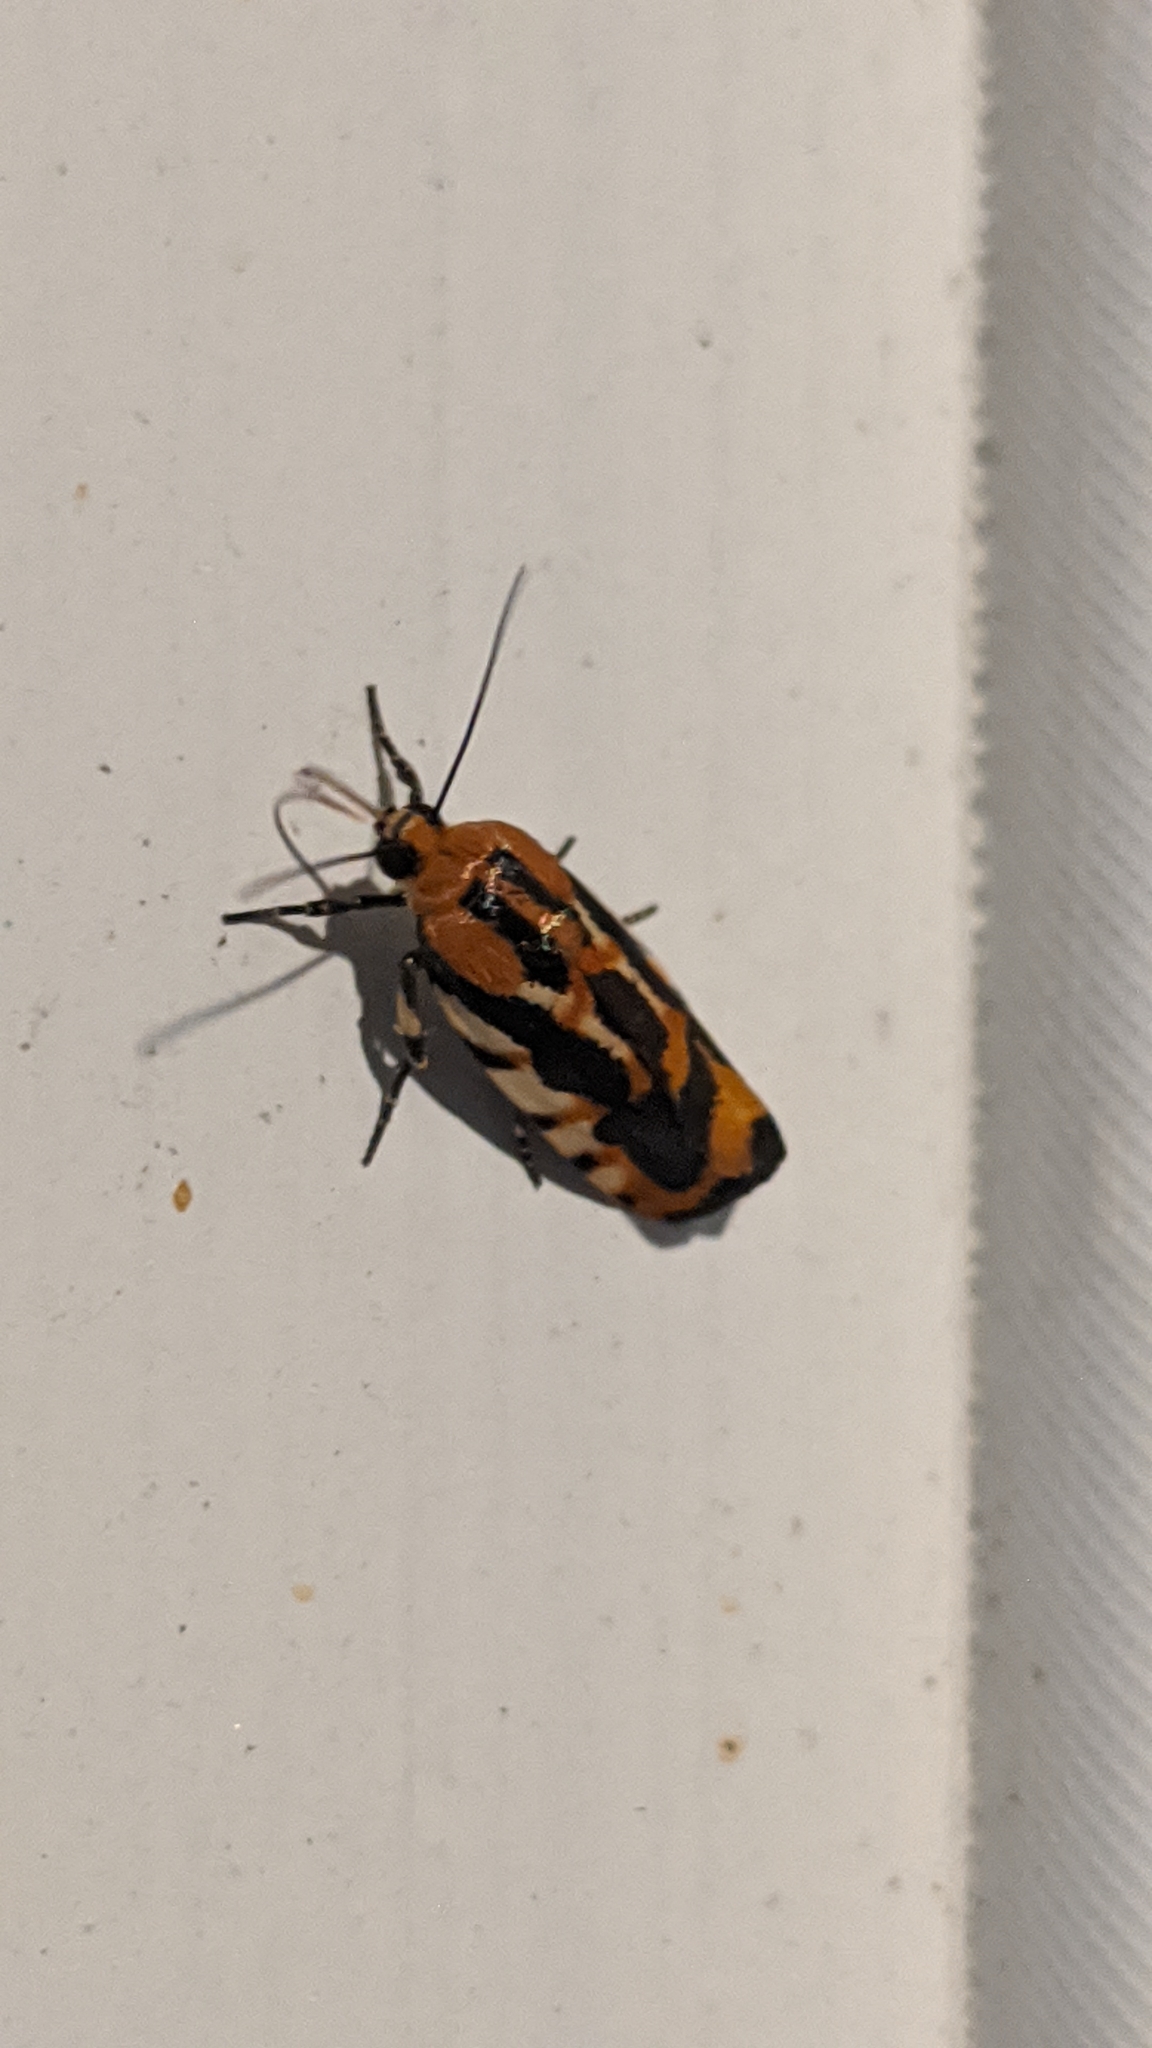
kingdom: Animalia
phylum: Arthropoda
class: Insecta
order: Lepidoptera
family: Noctuidae
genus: Acontia
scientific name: Acontia leo
